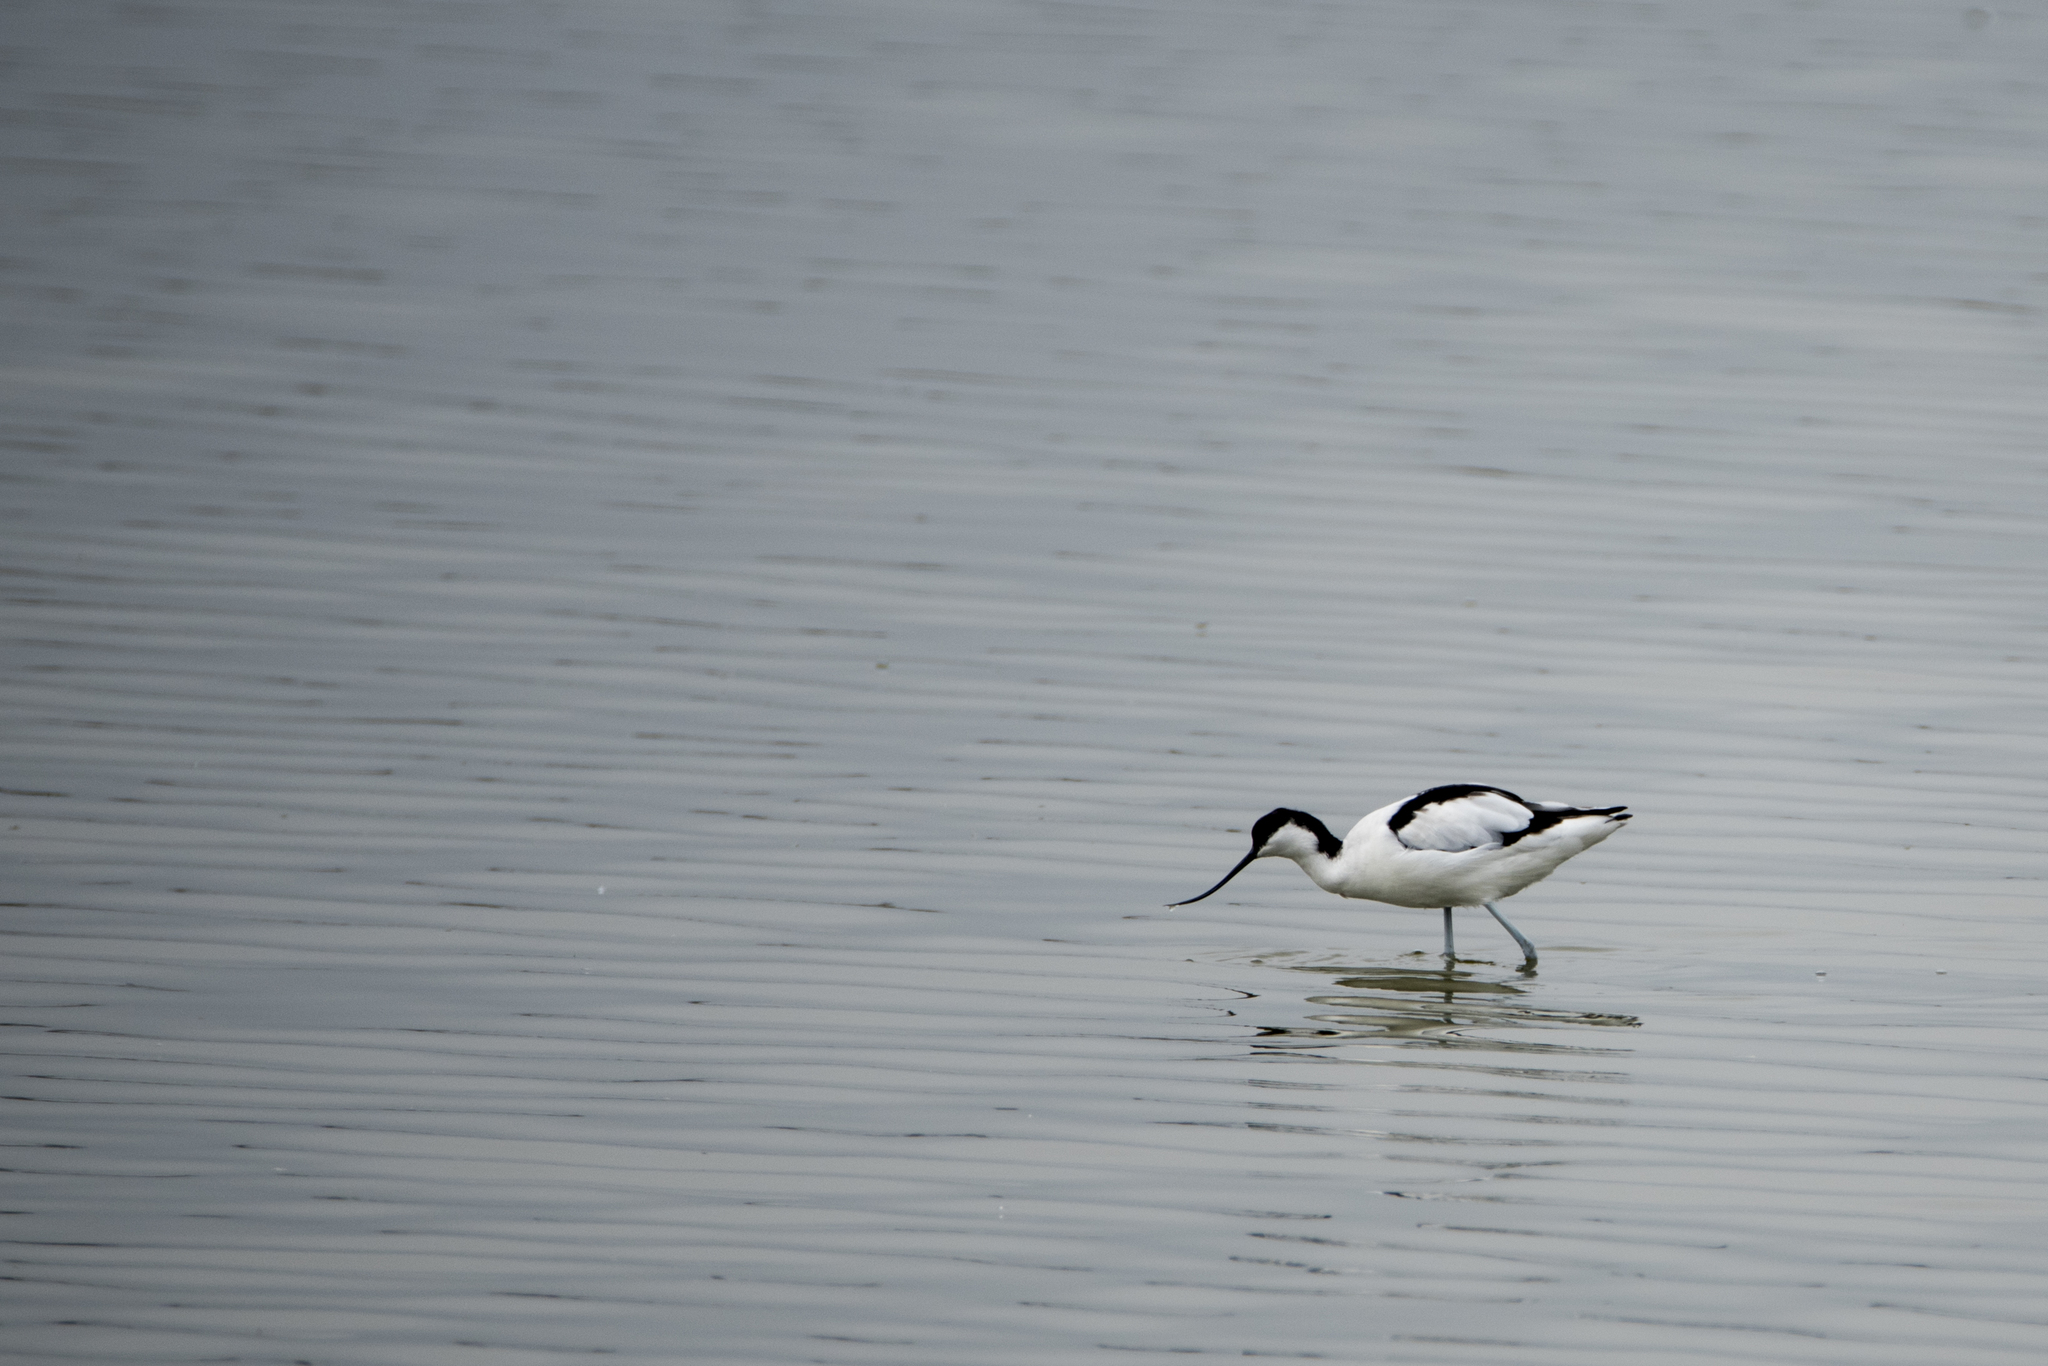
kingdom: Animalia
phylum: Chordata
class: Aves
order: Charadriiformes
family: Recurvirostridae
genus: Recurvirostra
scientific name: Recurvirostra avosetta
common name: Pied avocet
